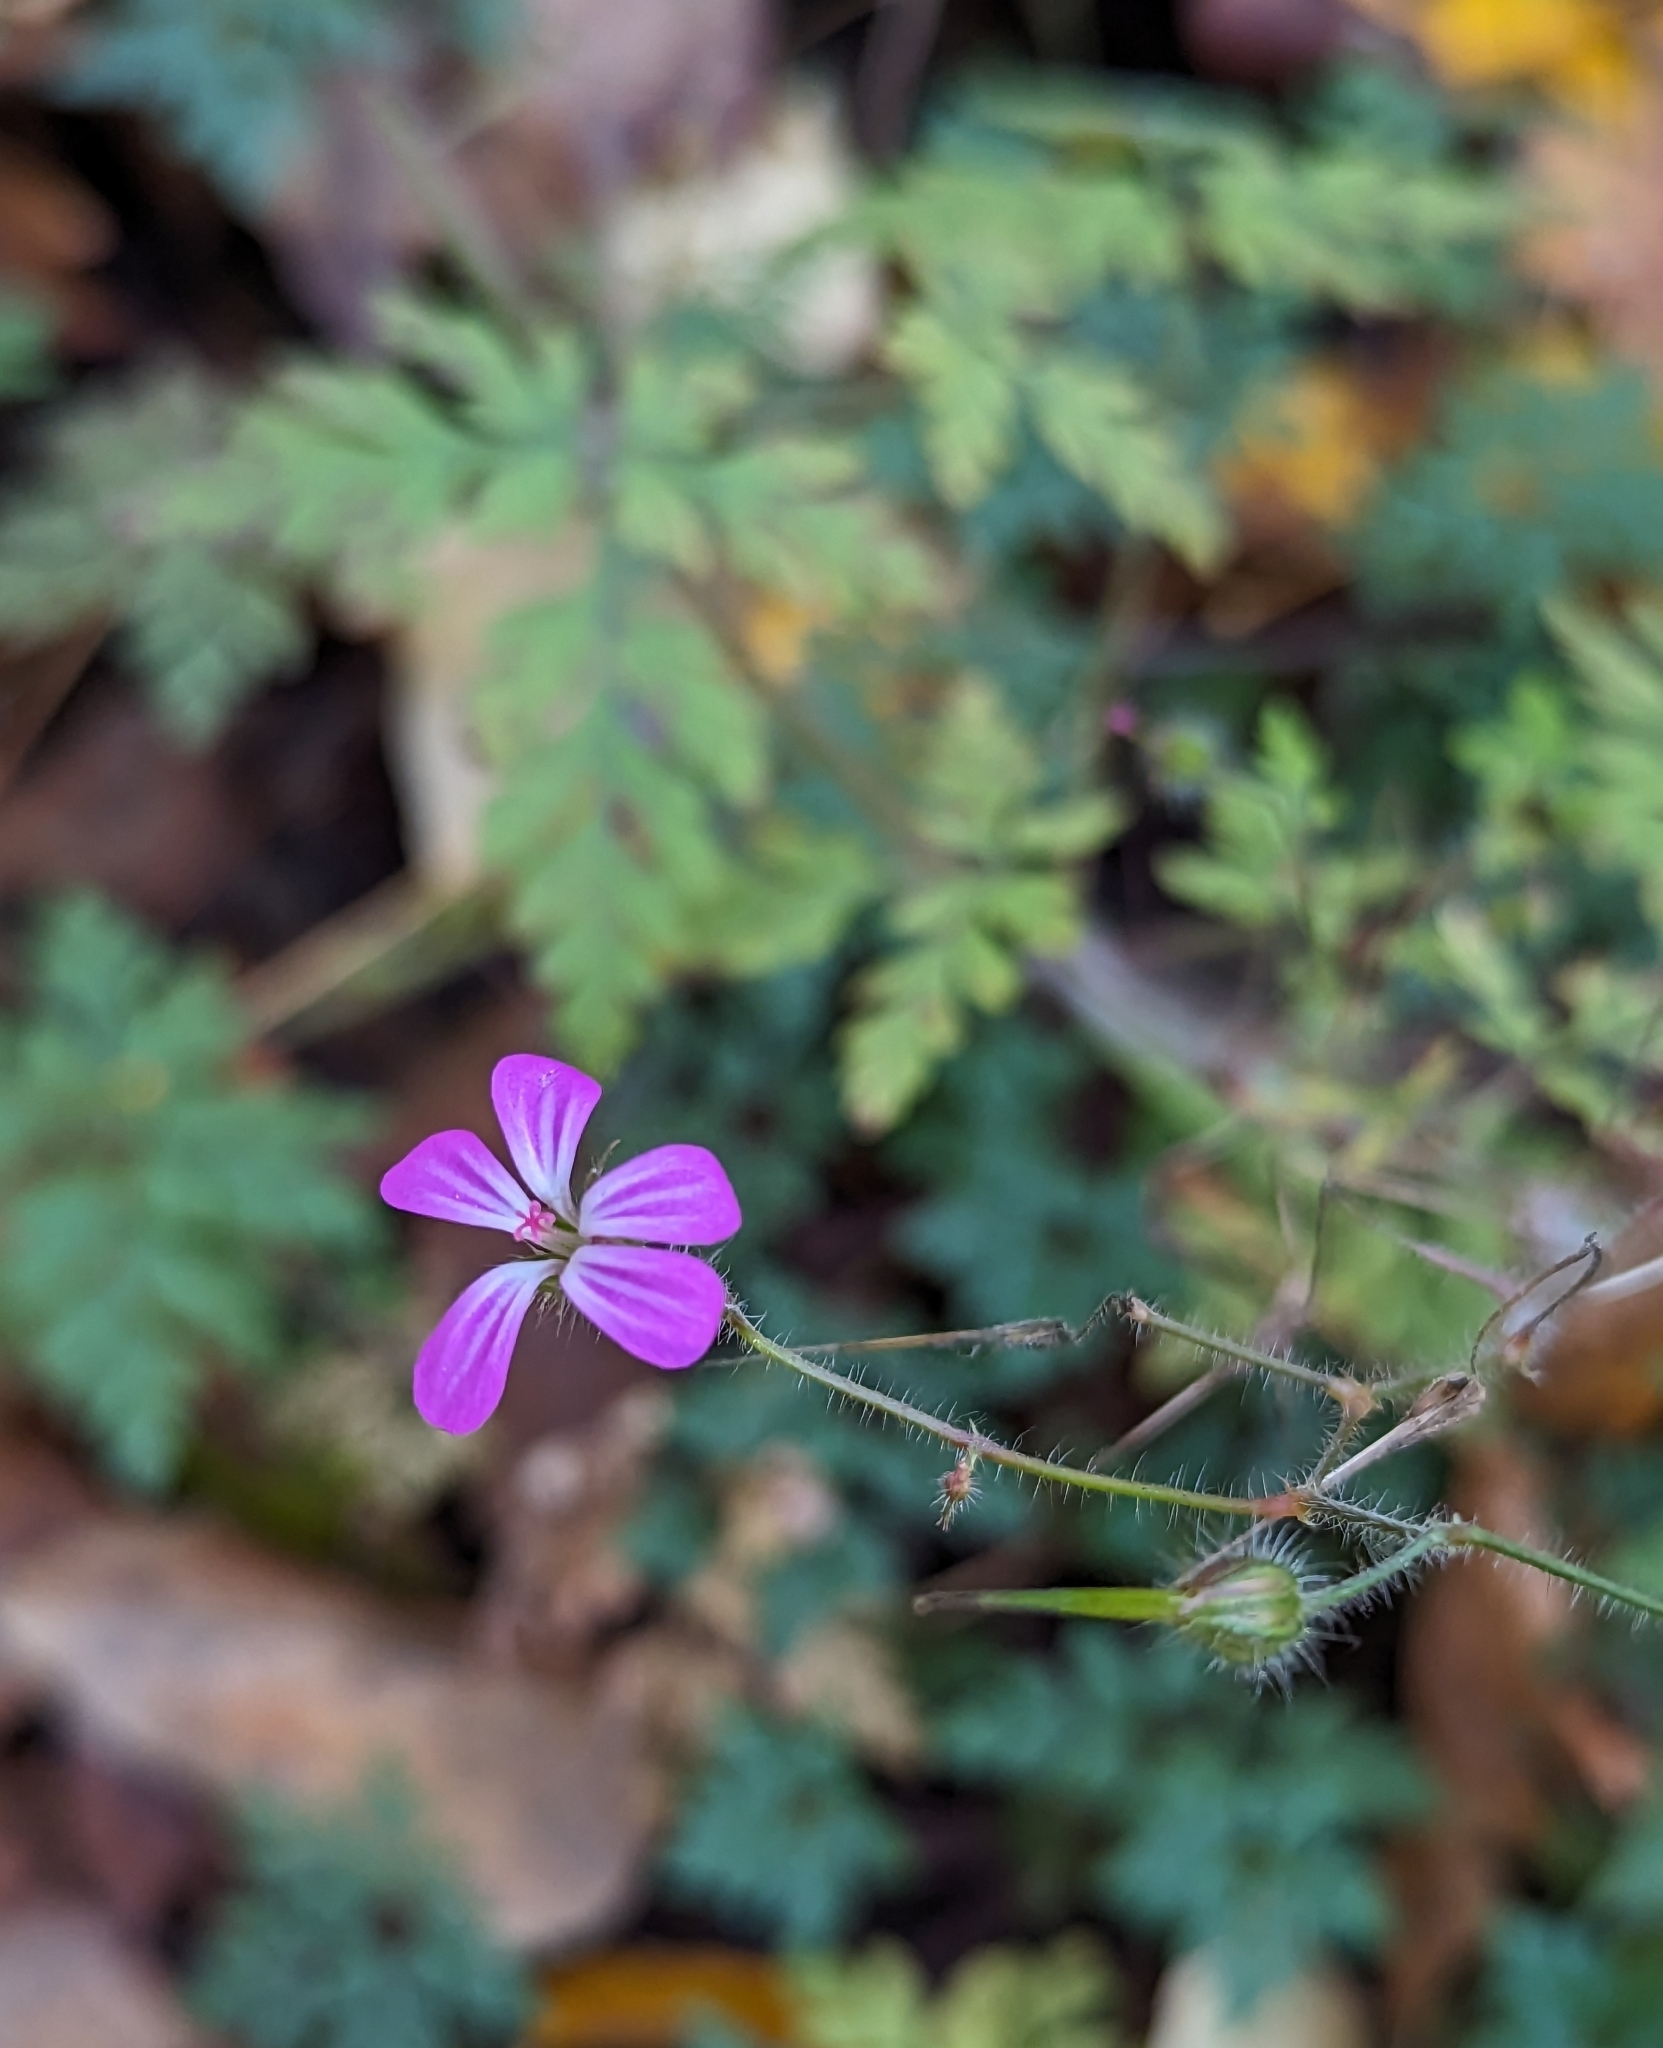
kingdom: Plantae
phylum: Tracheophyta
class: Magnoliopsida
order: Geraniales
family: Geraniaceae
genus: Geranium
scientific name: Geranium robertianum
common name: Herb-robert
